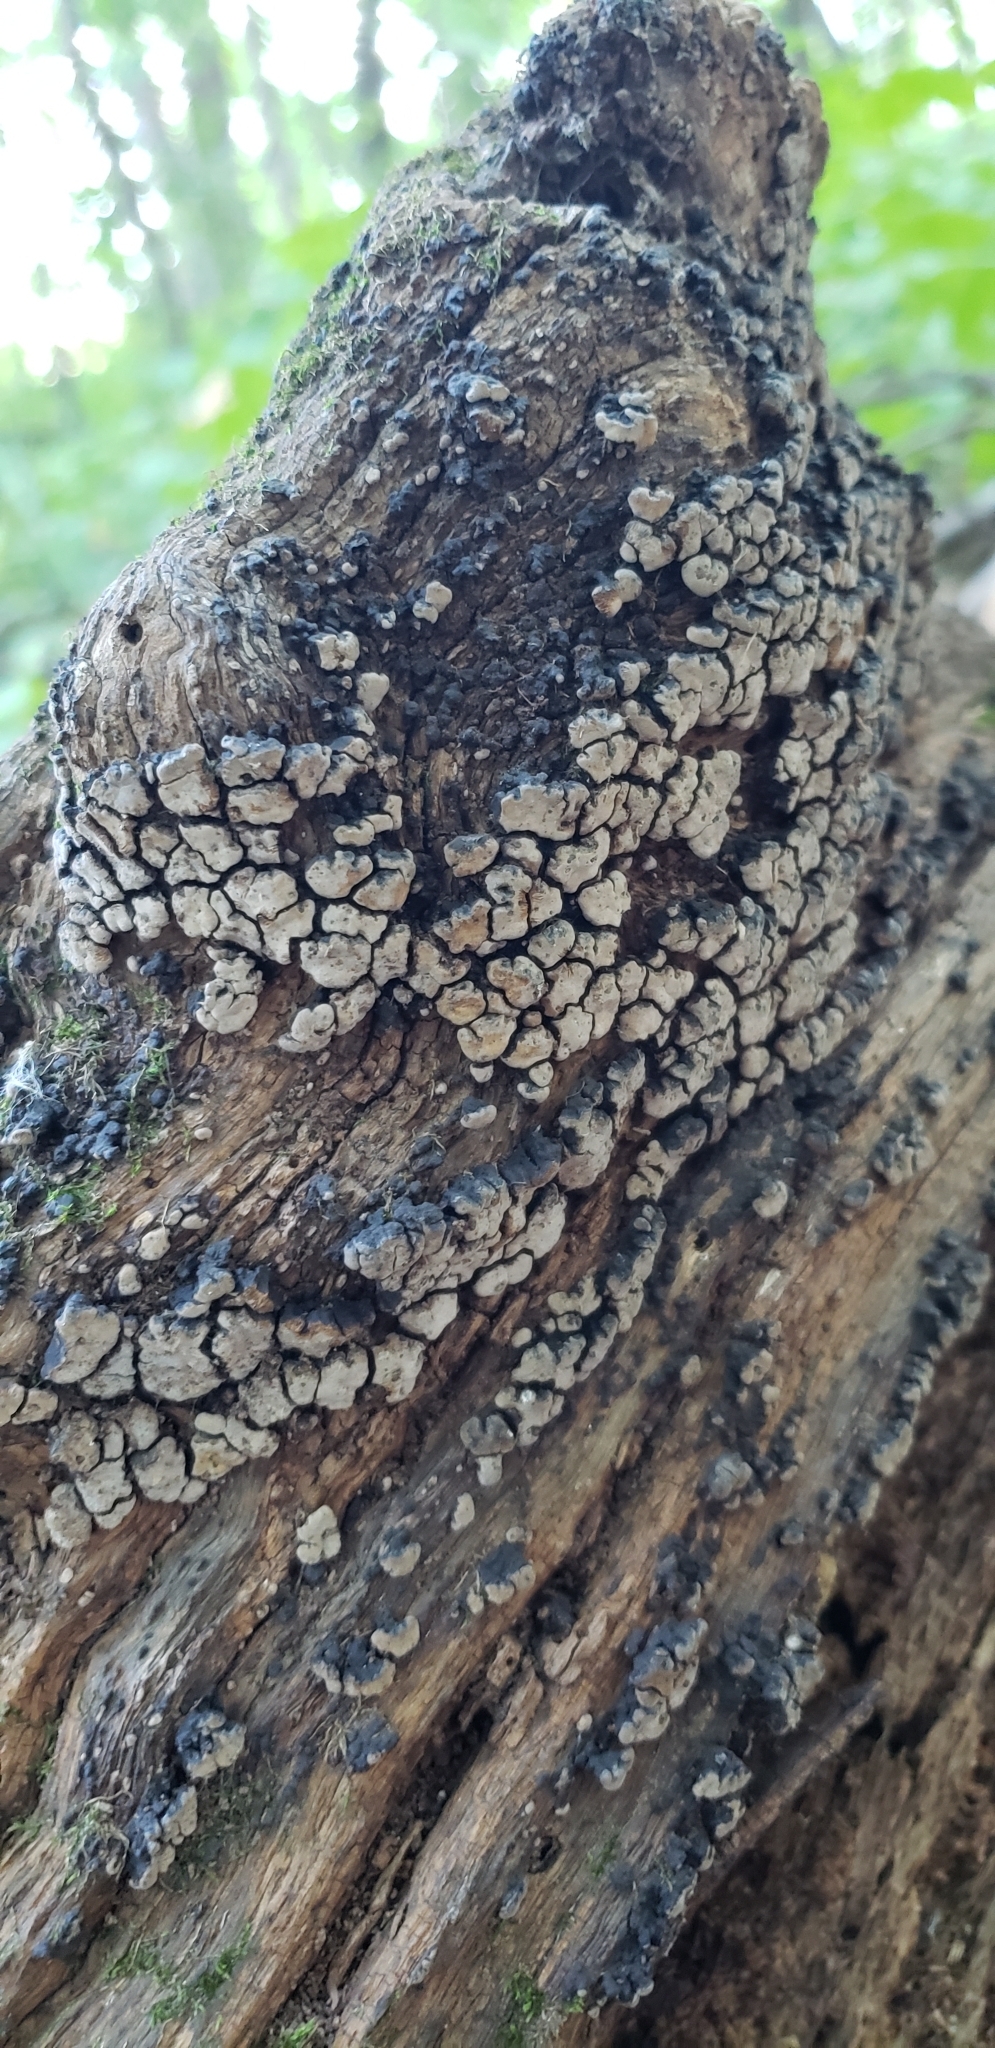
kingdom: Fungi
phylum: Basidiomycota
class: Agaricomycetes
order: Russulales
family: Stereaceae
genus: Xylobolus
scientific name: Xylobolus frustulatus
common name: Ceramic parchment
